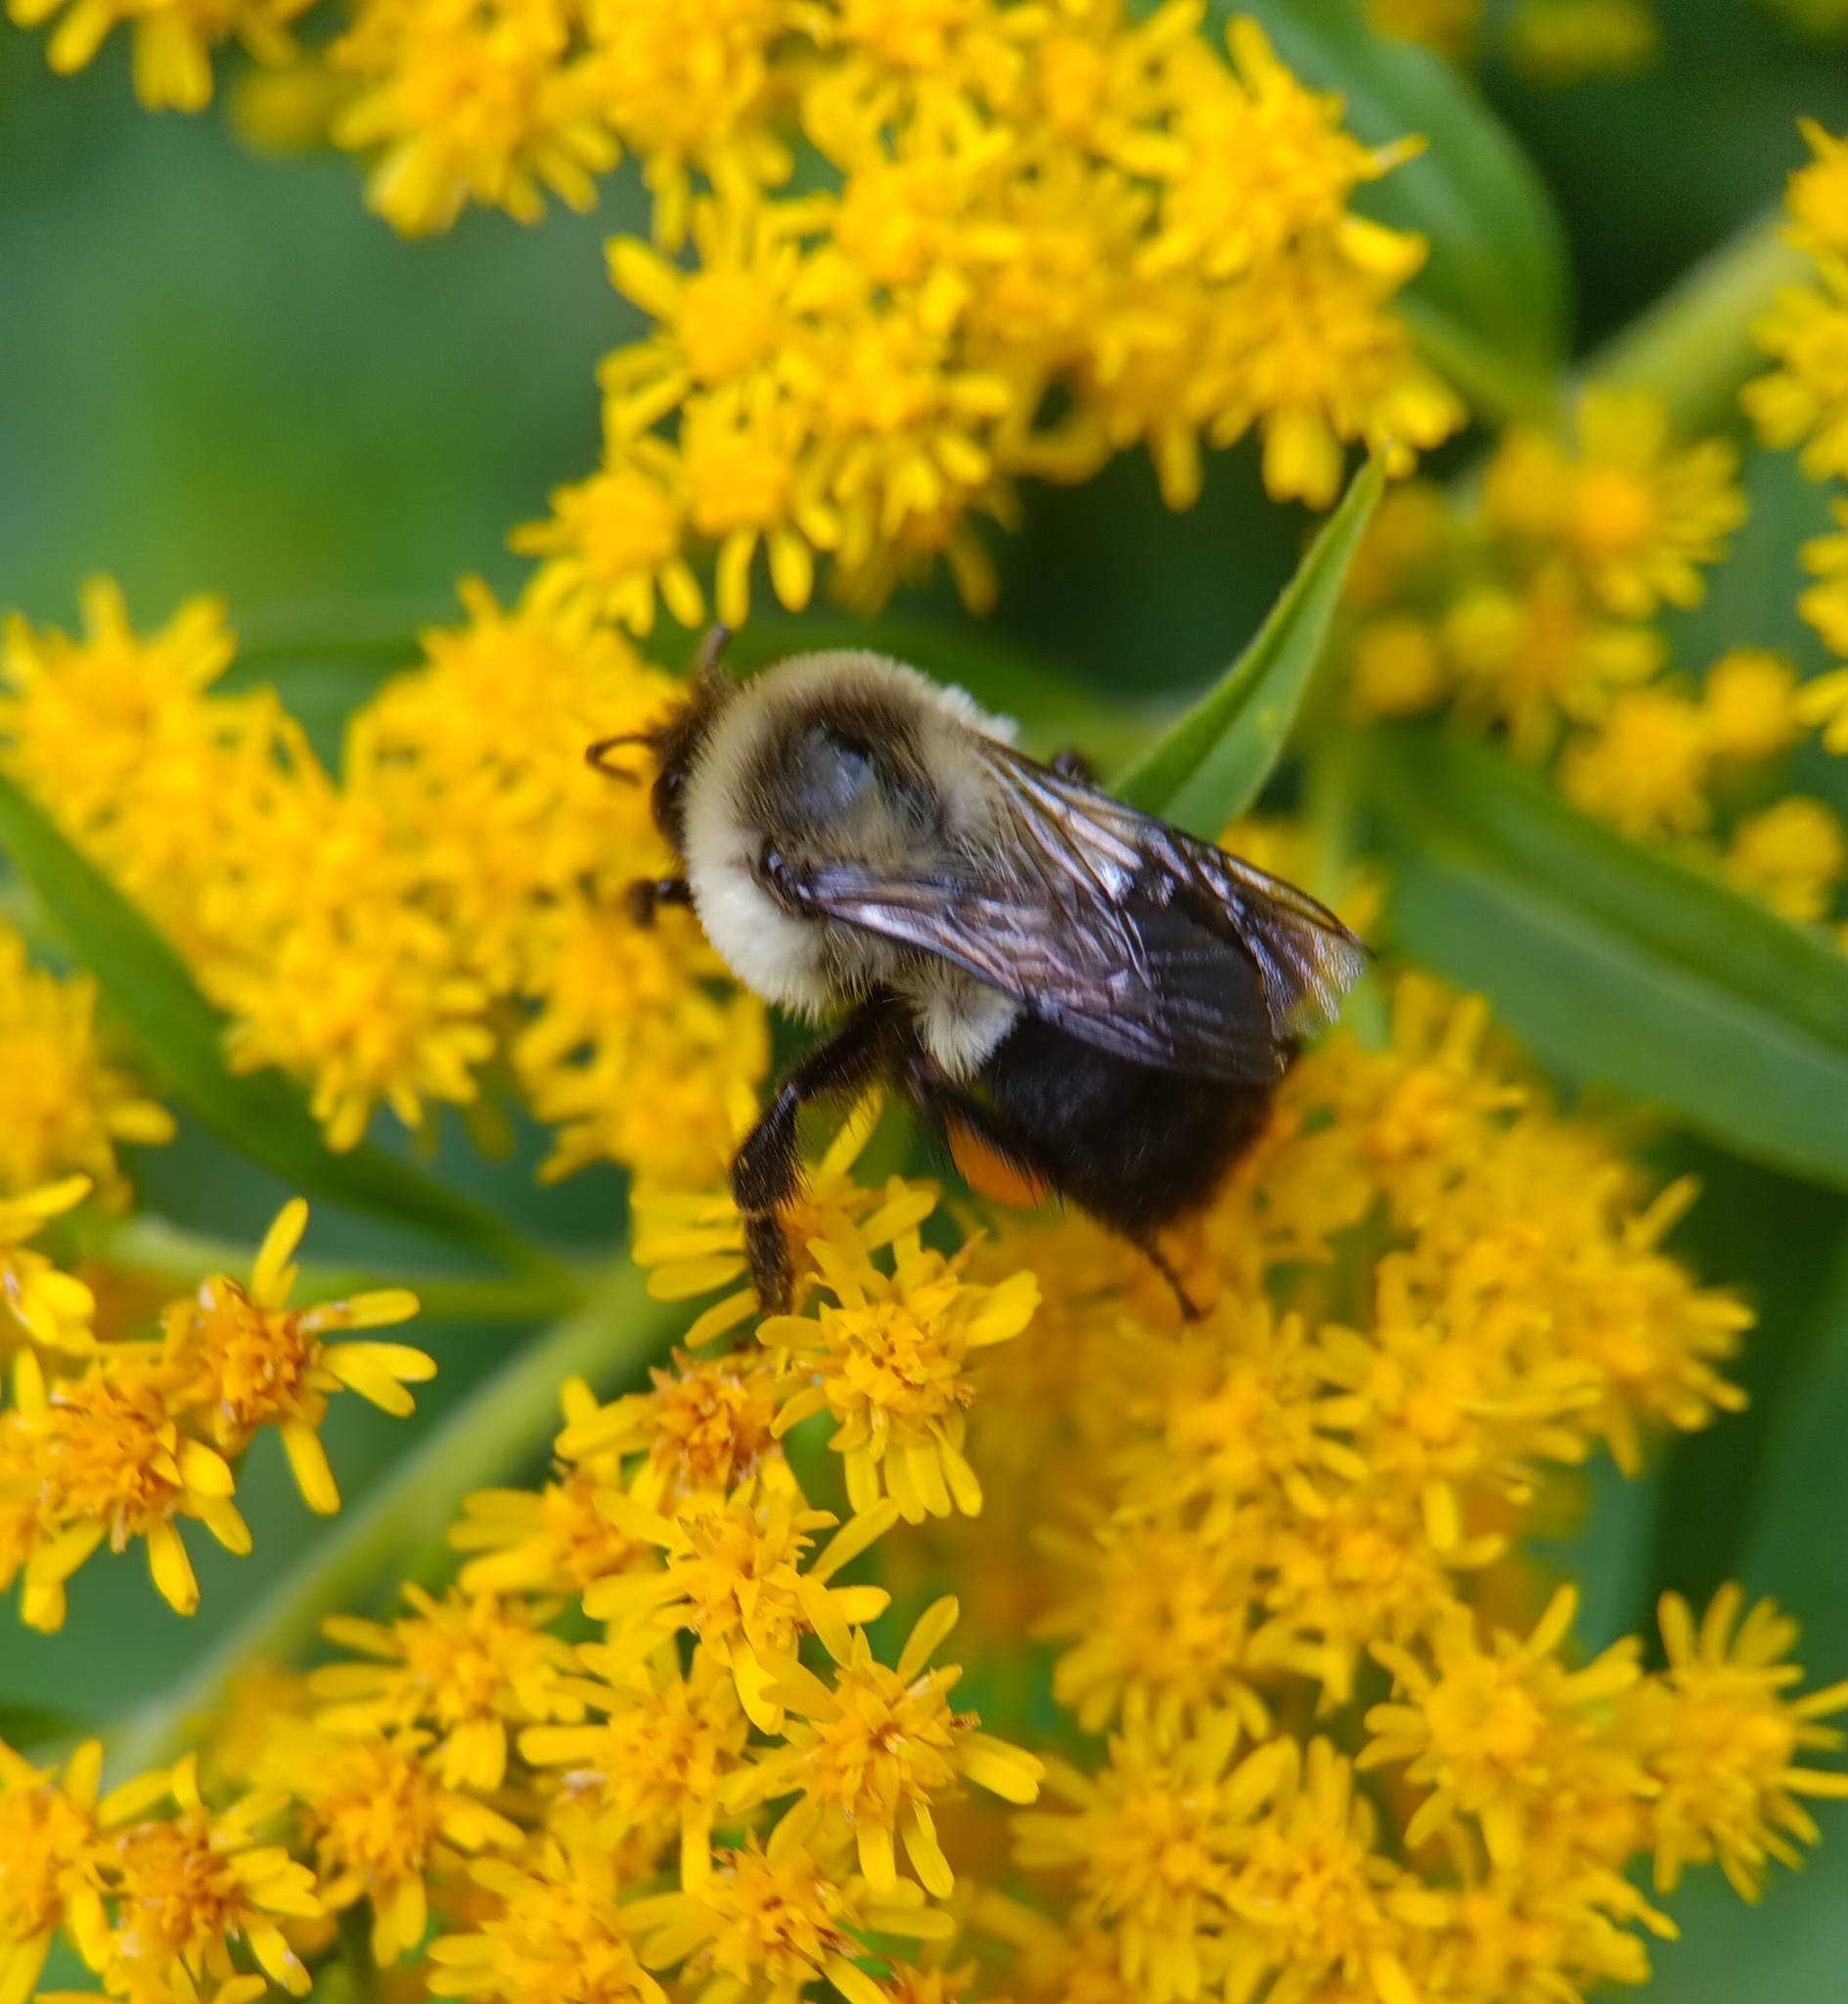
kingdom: Animalia
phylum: Arthropoda
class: Insecta
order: Hymenoptera
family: Apidae
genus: Bombus
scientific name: Bombus impatiens
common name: Common eastern bumble bee
